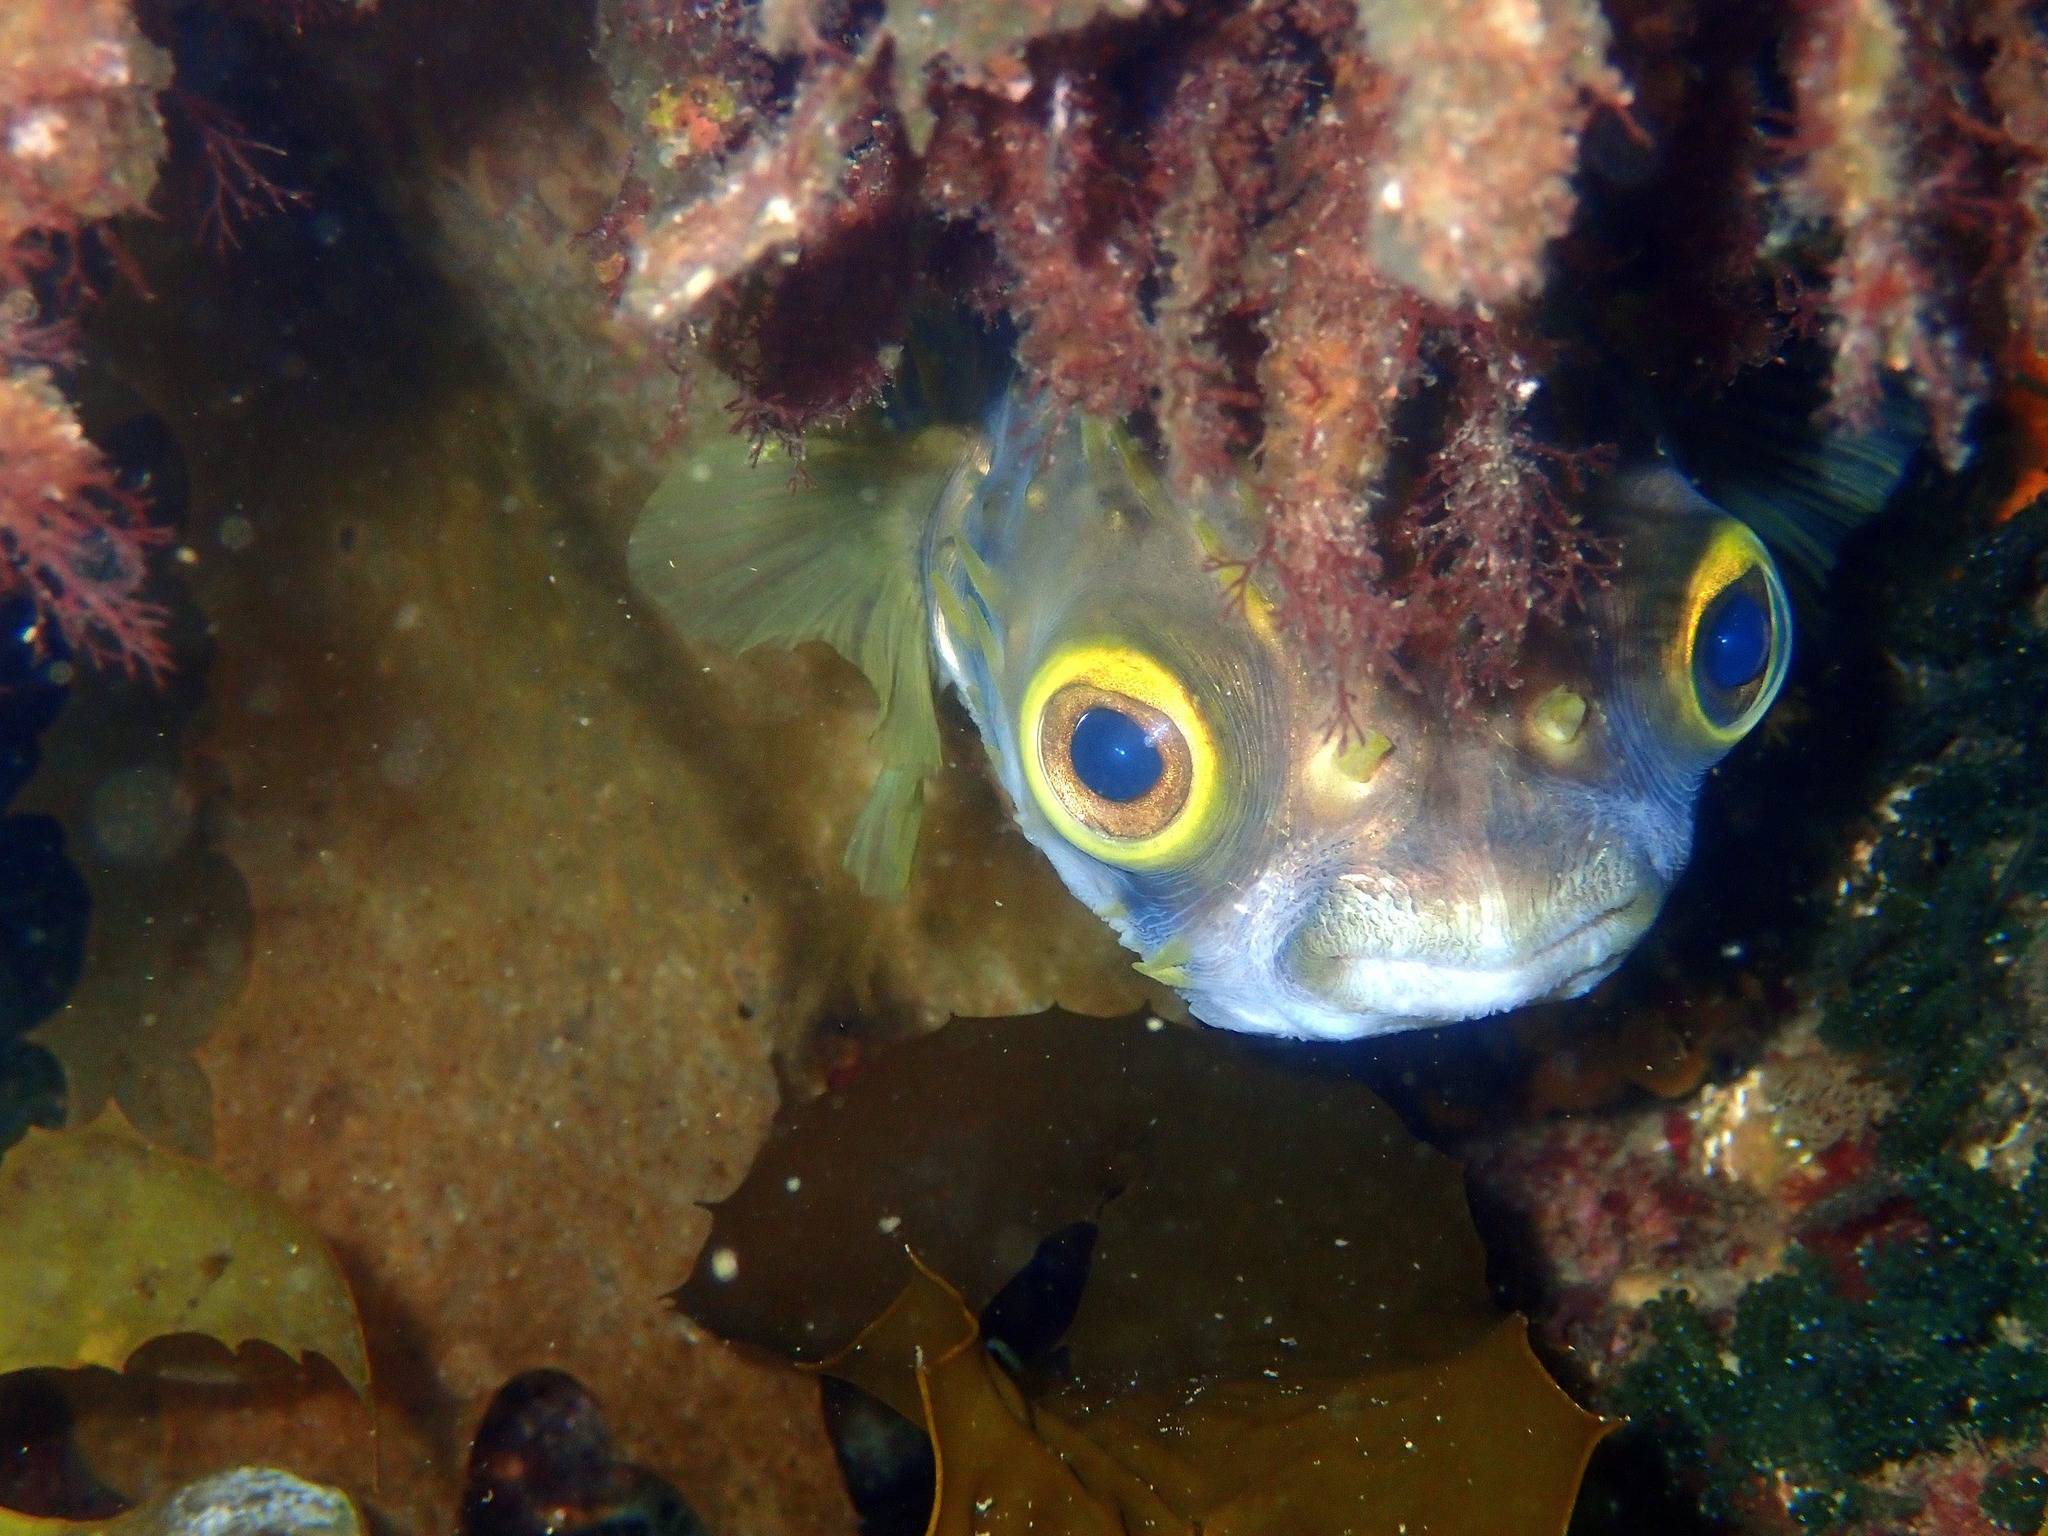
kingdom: Animalia
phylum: Chordata
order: Tetraodontiformes
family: Diodontidae
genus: Diodon
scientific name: Diodon nicthemerus
